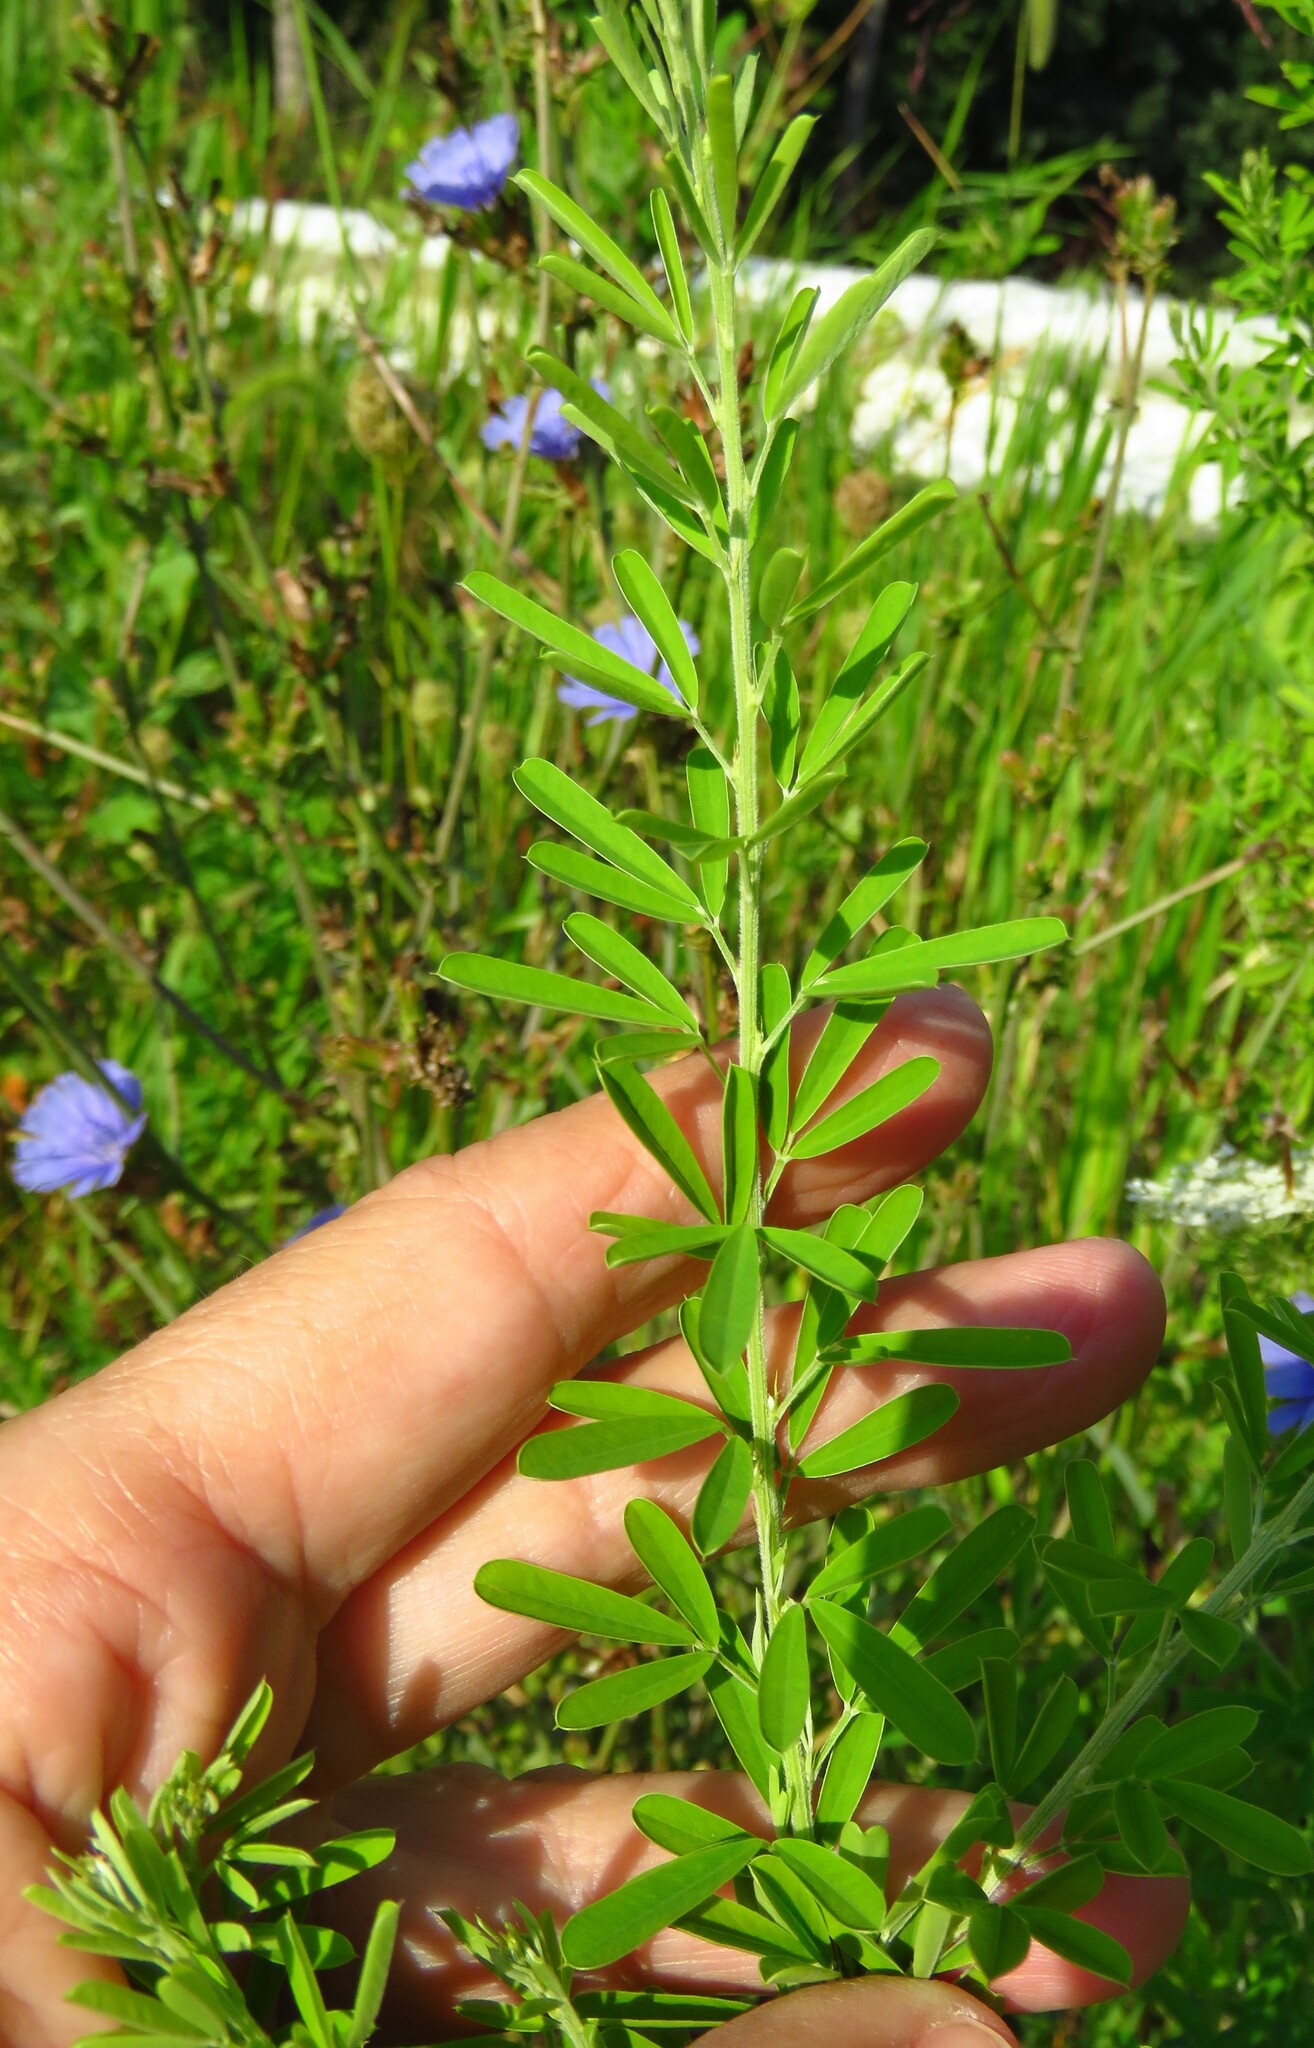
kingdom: Plantae
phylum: Tracheophyta
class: Magnoliopsida
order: Fabales
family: Fabaceae
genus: Lespedeza
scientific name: Lespedeza cuneata
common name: Chinese bush-clover
